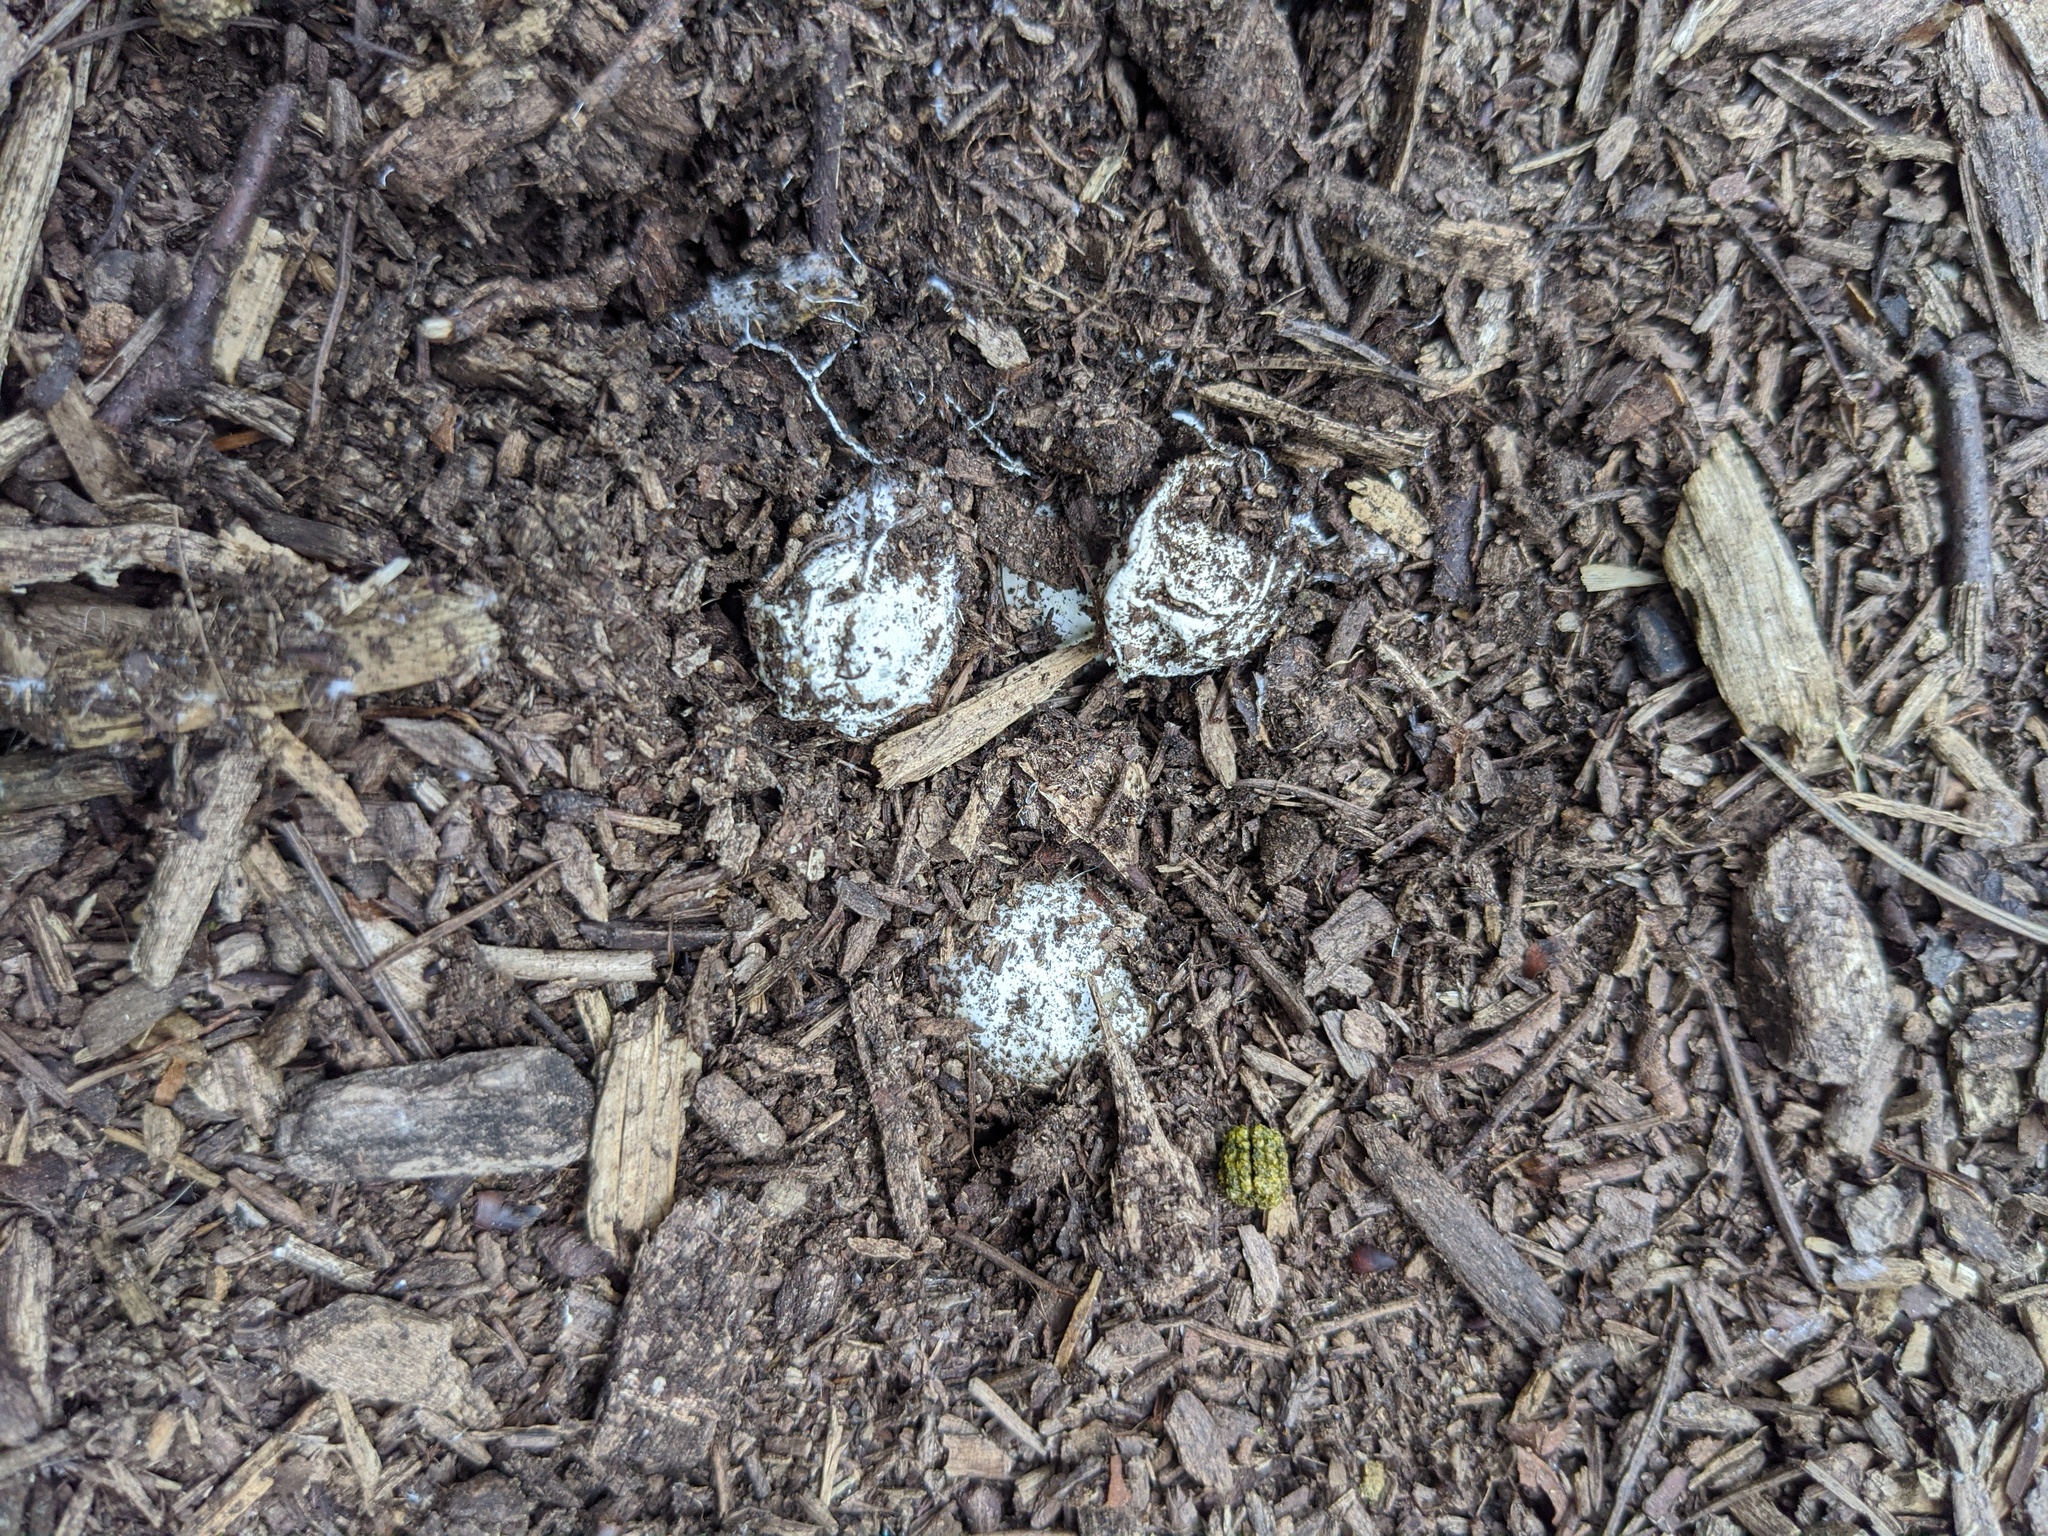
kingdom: Fungi
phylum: Basidiomycota
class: Agaricomycetes
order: Phallales
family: Phallaceae
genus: Lysurus
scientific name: Lysurus mokusin
